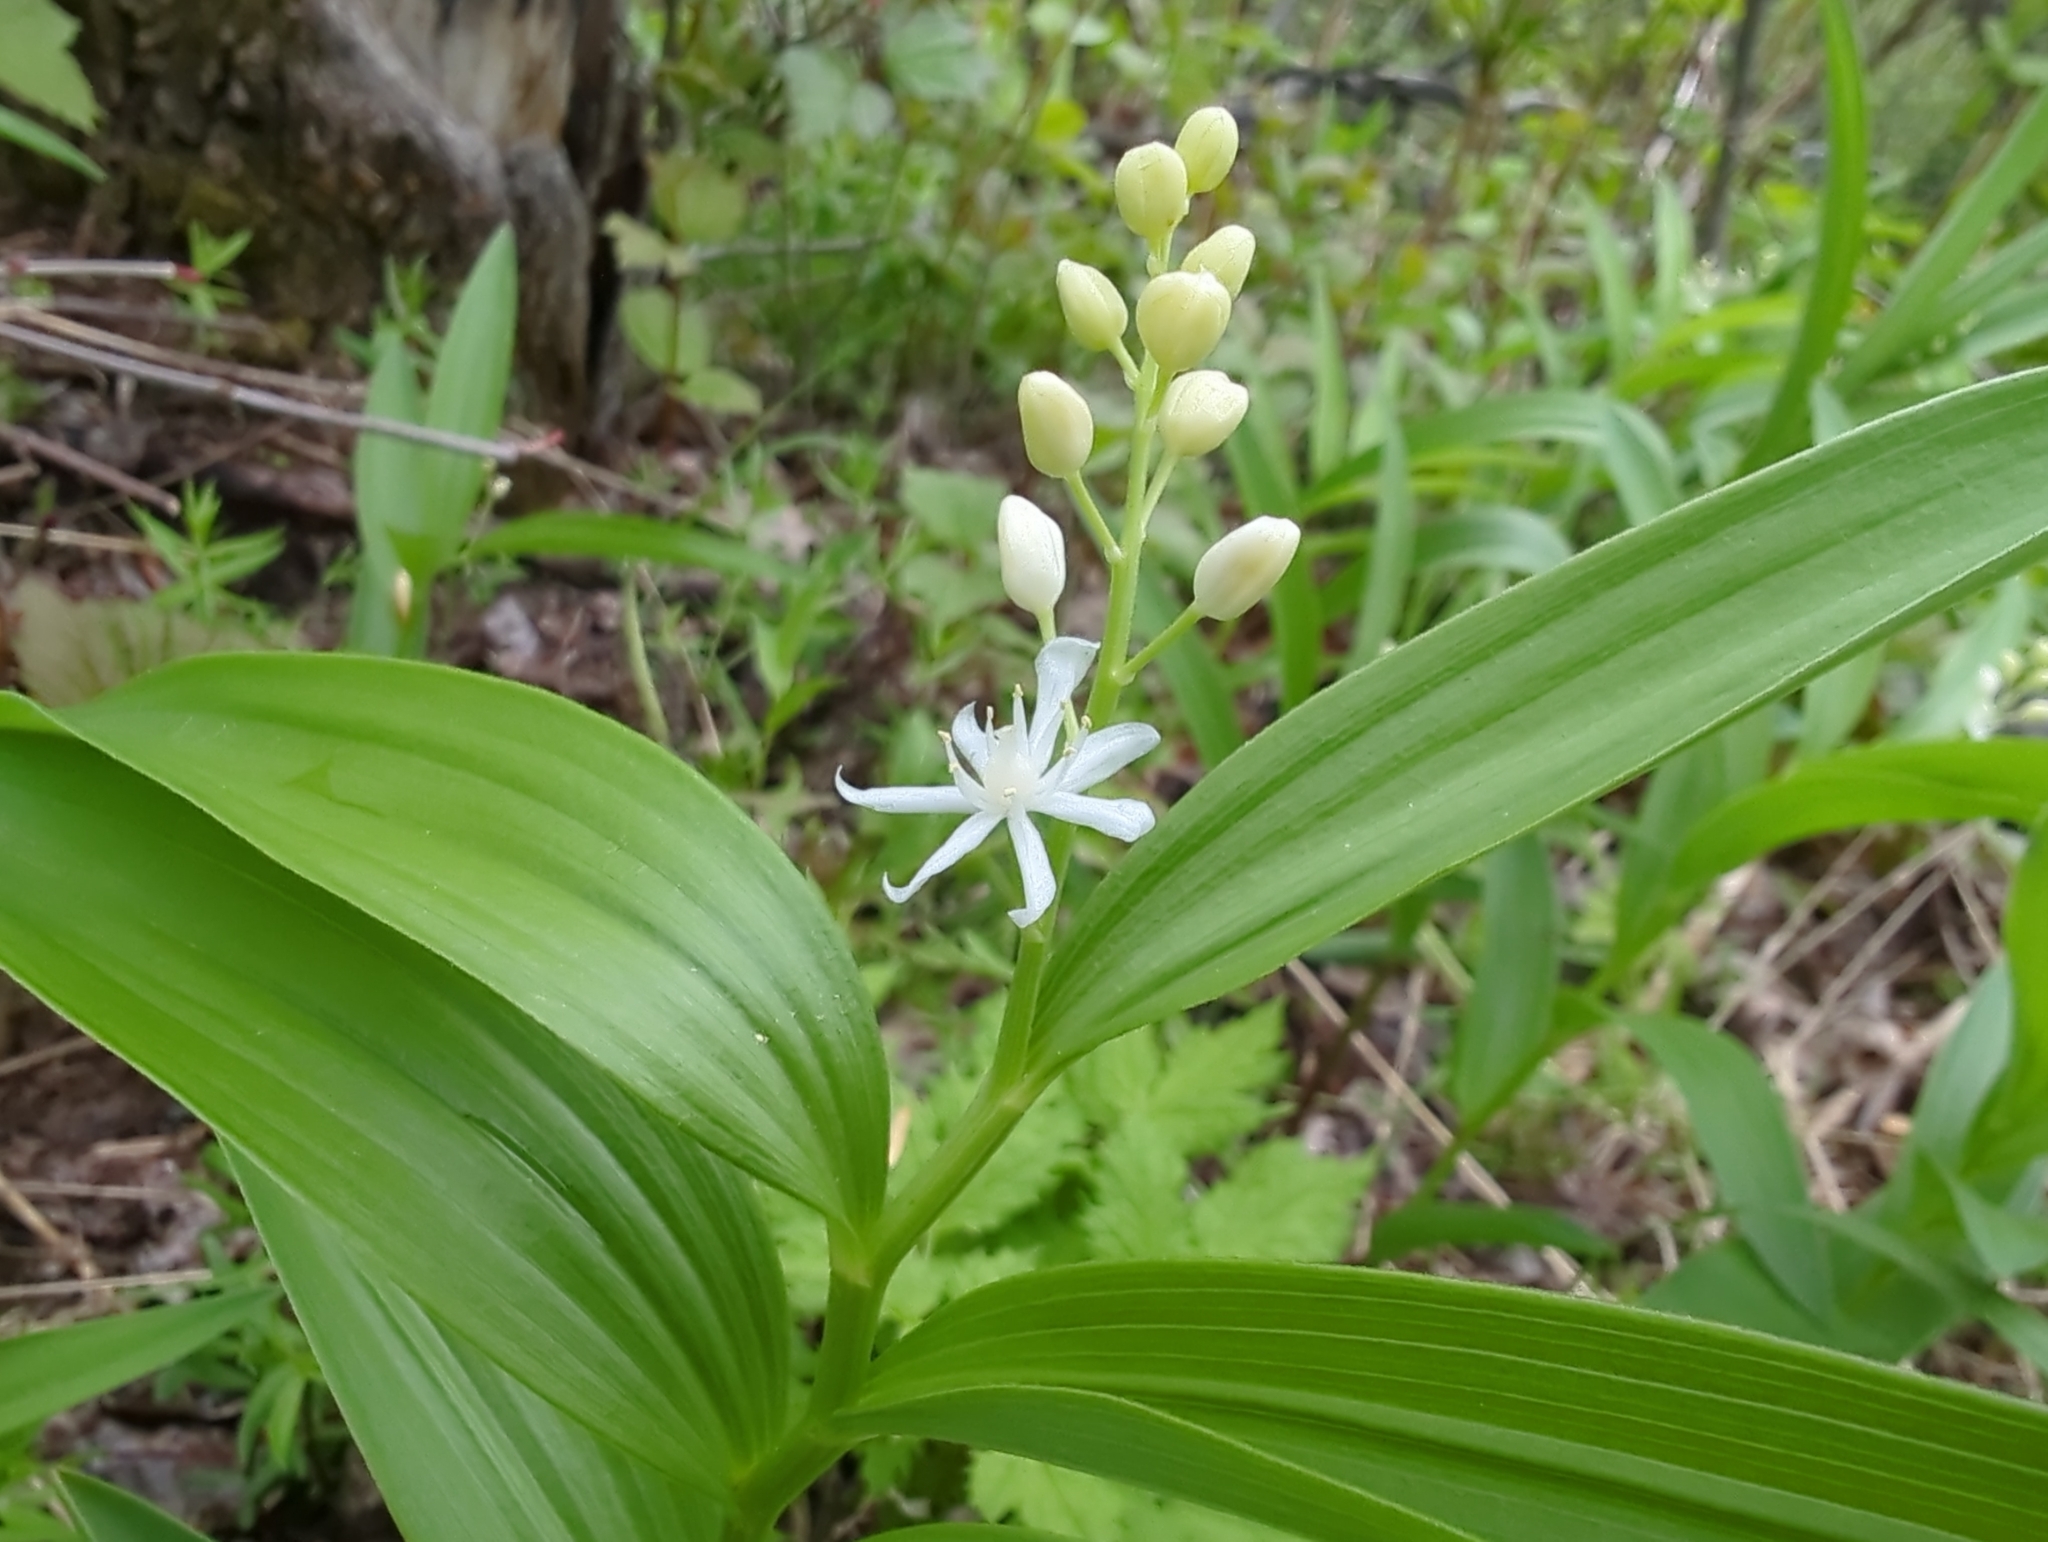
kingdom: Plantae
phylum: Tracheophyta
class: Liliopsida
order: Asparagales
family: Asparagaceae
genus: Maianthemum
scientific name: Maianthemum stellatum
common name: Little false solomon's seal
